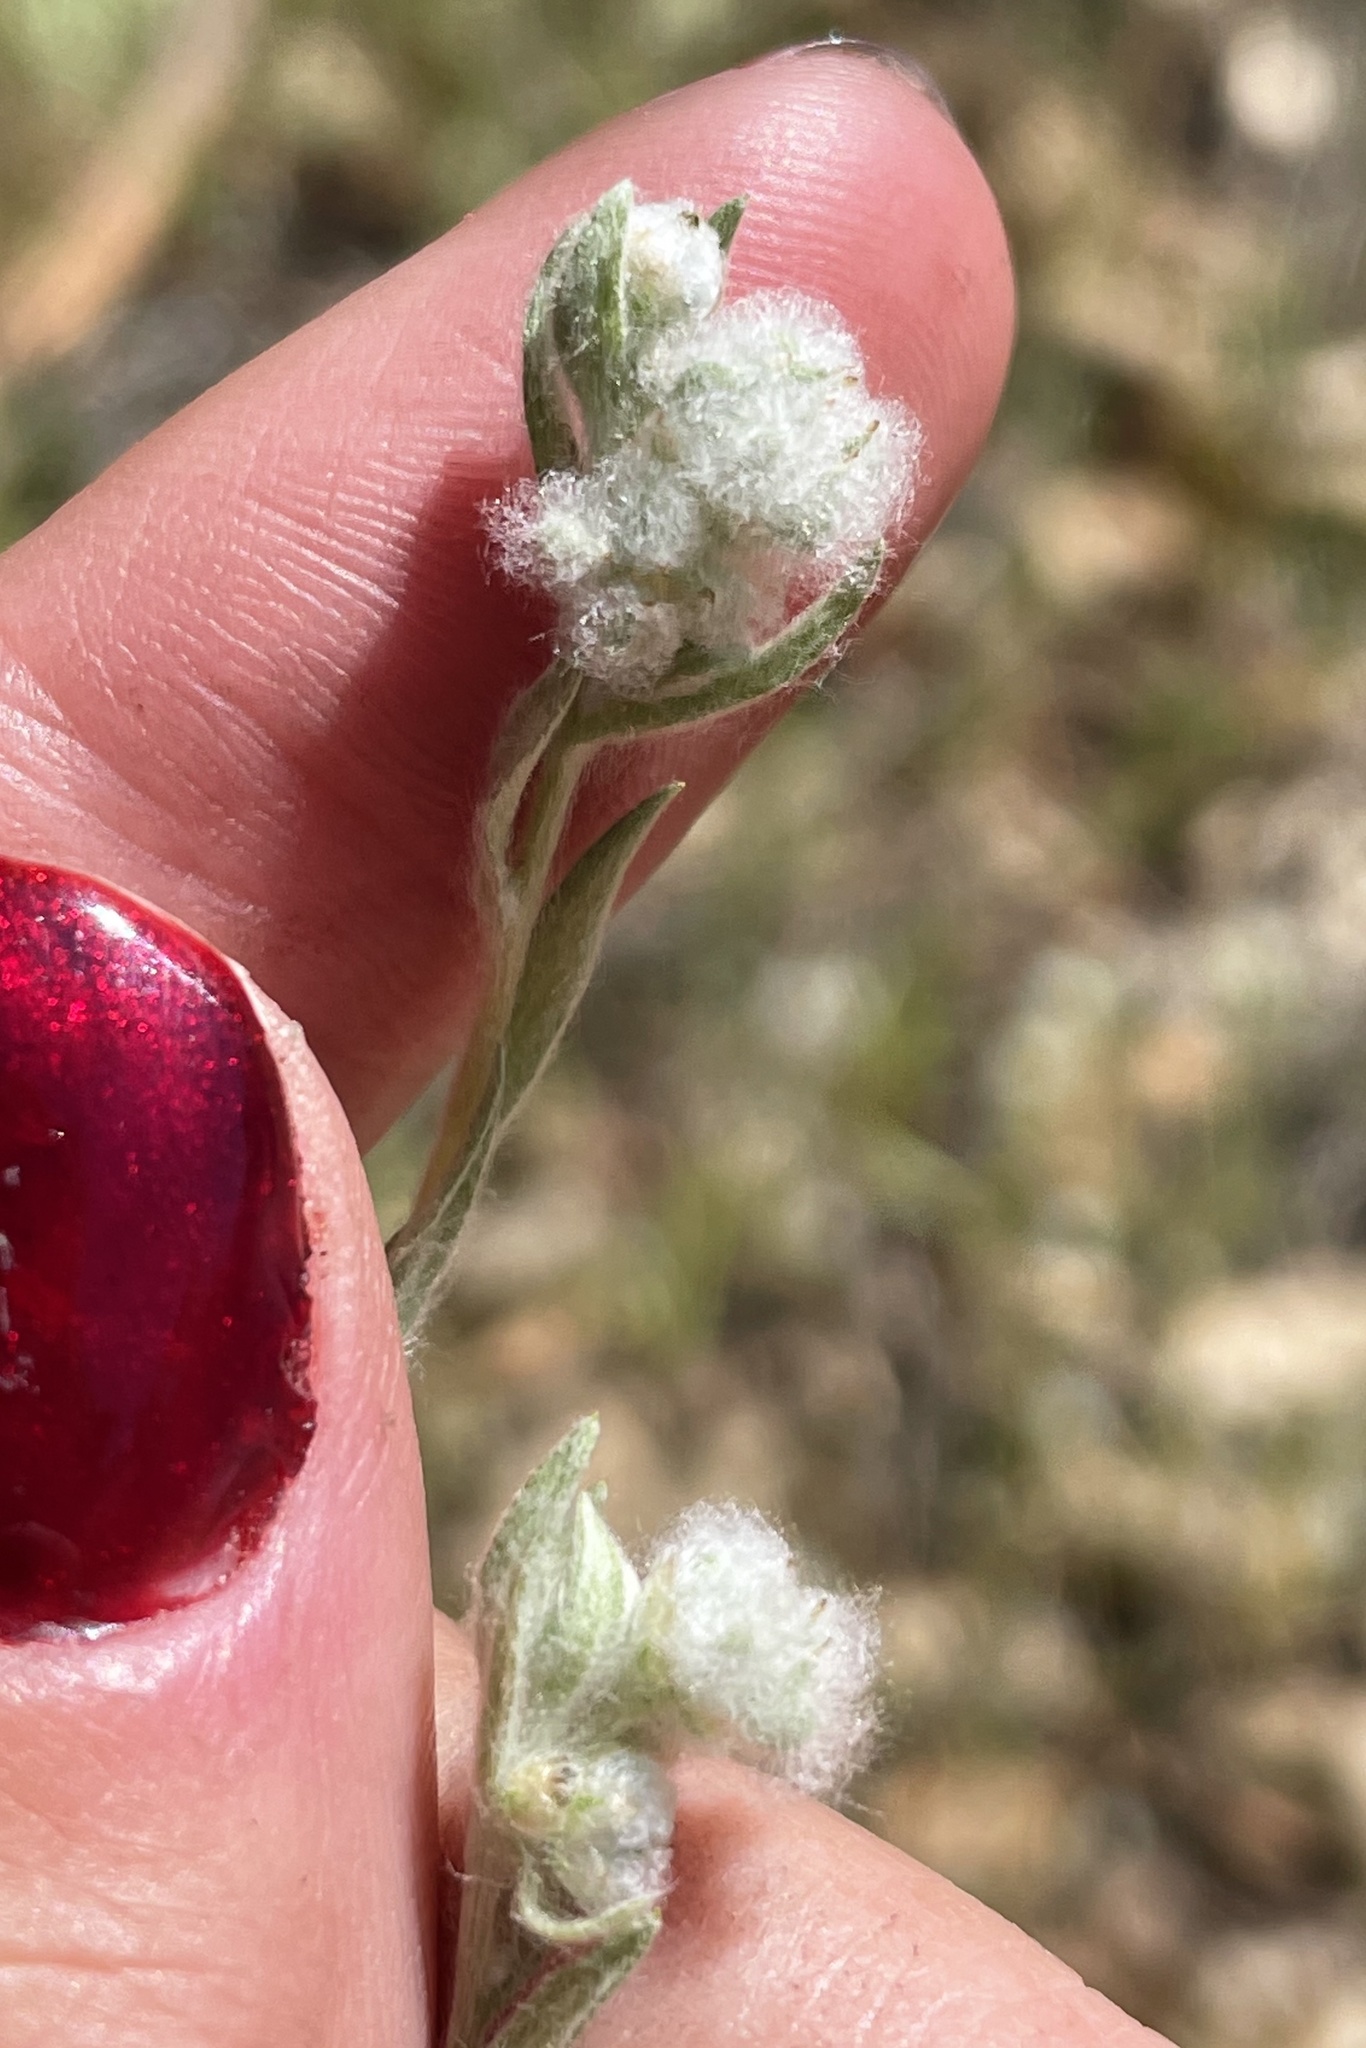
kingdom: Plantae
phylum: Tracheophyta
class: Magnoliopsida
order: Asterales
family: Asteraceae
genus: Bombycilaena
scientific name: Bombycilaena californica
